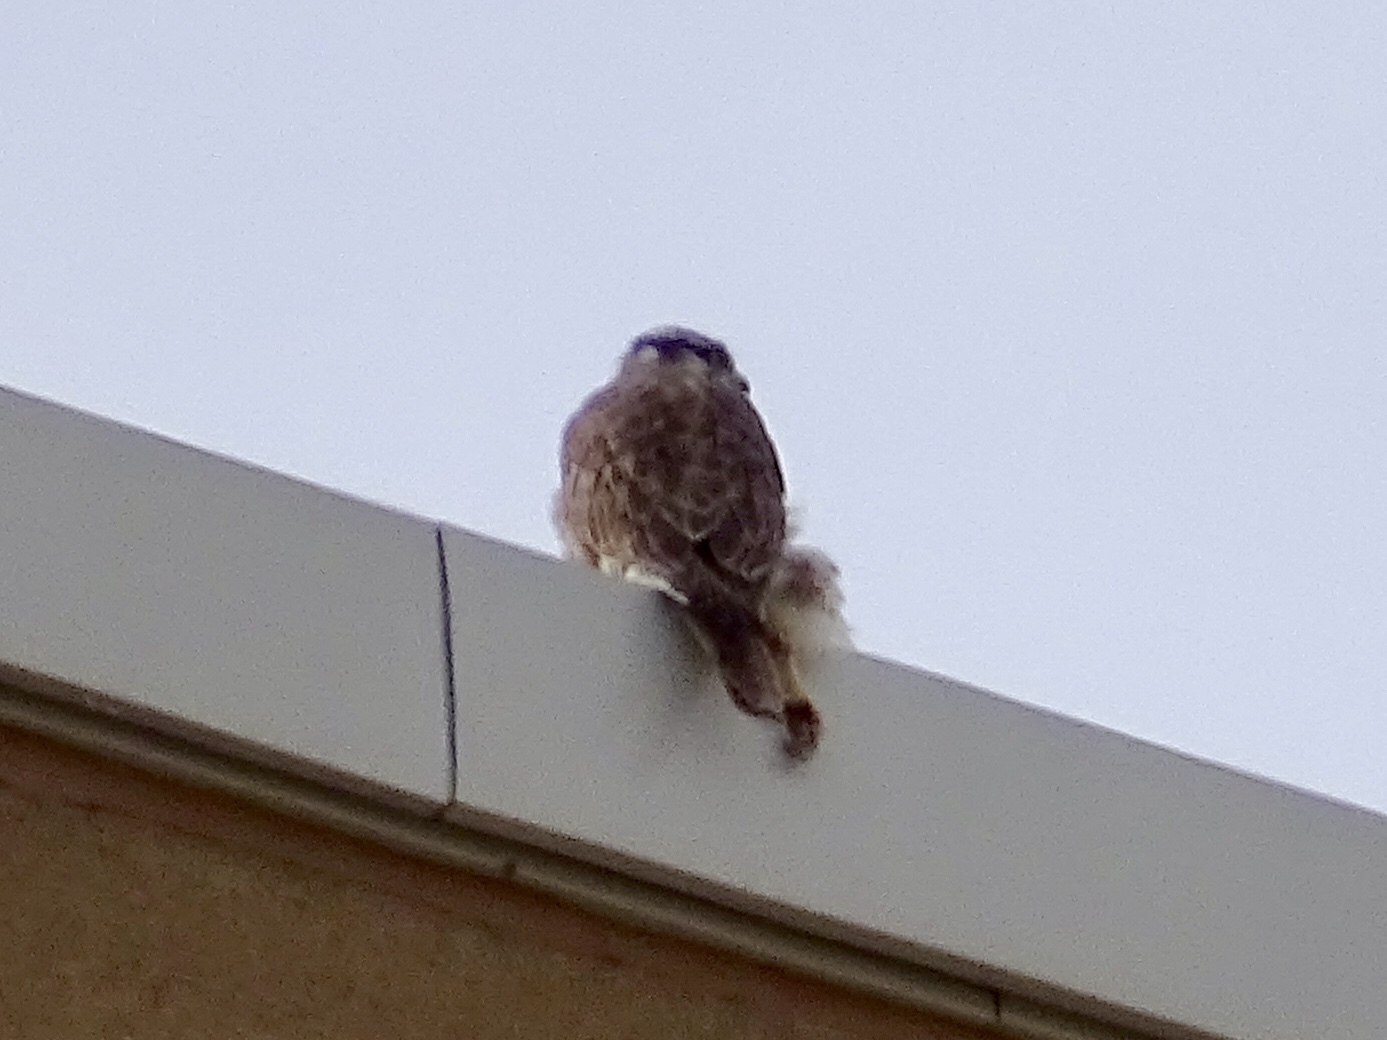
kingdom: Animalia
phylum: Chordata
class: Aves
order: Falconiformes
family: Falconidae
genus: Falco
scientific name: Falco sparverius
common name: American kestrel
